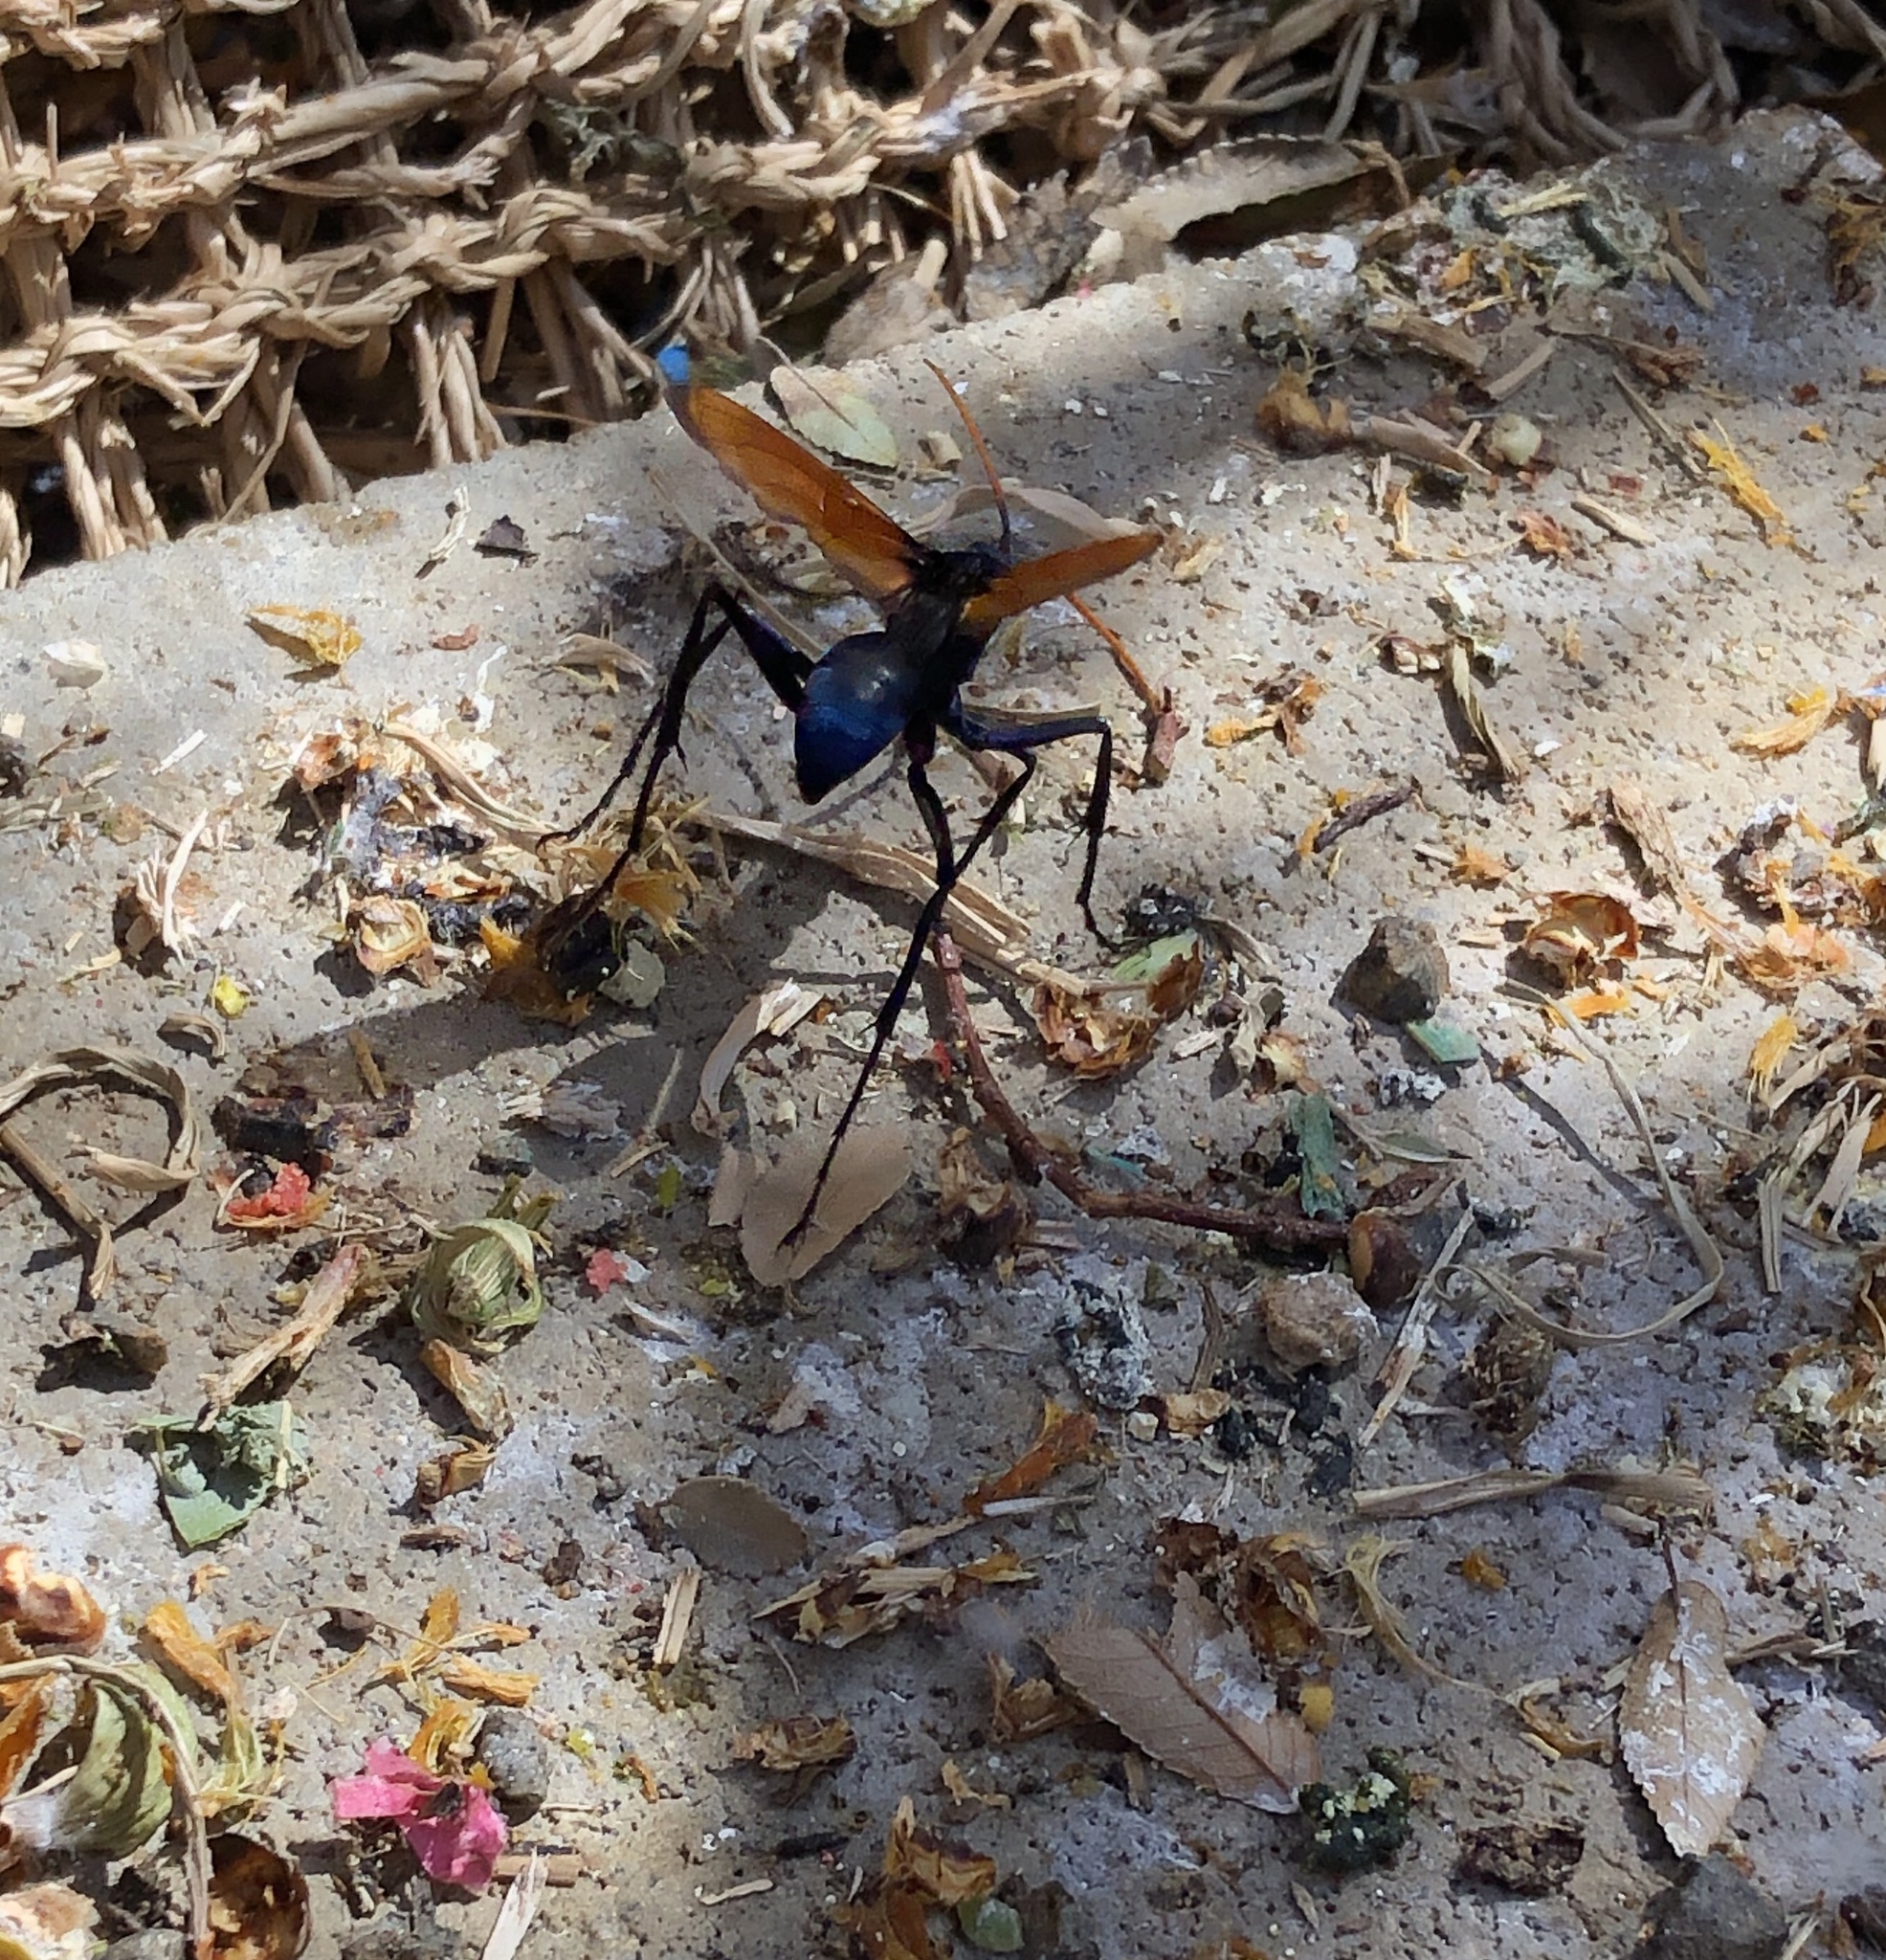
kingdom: Animalia
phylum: Arthropoda
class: Insecta
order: Hymenoptera
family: Pompilidae
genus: Pepsis
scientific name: Pepsis mildei
